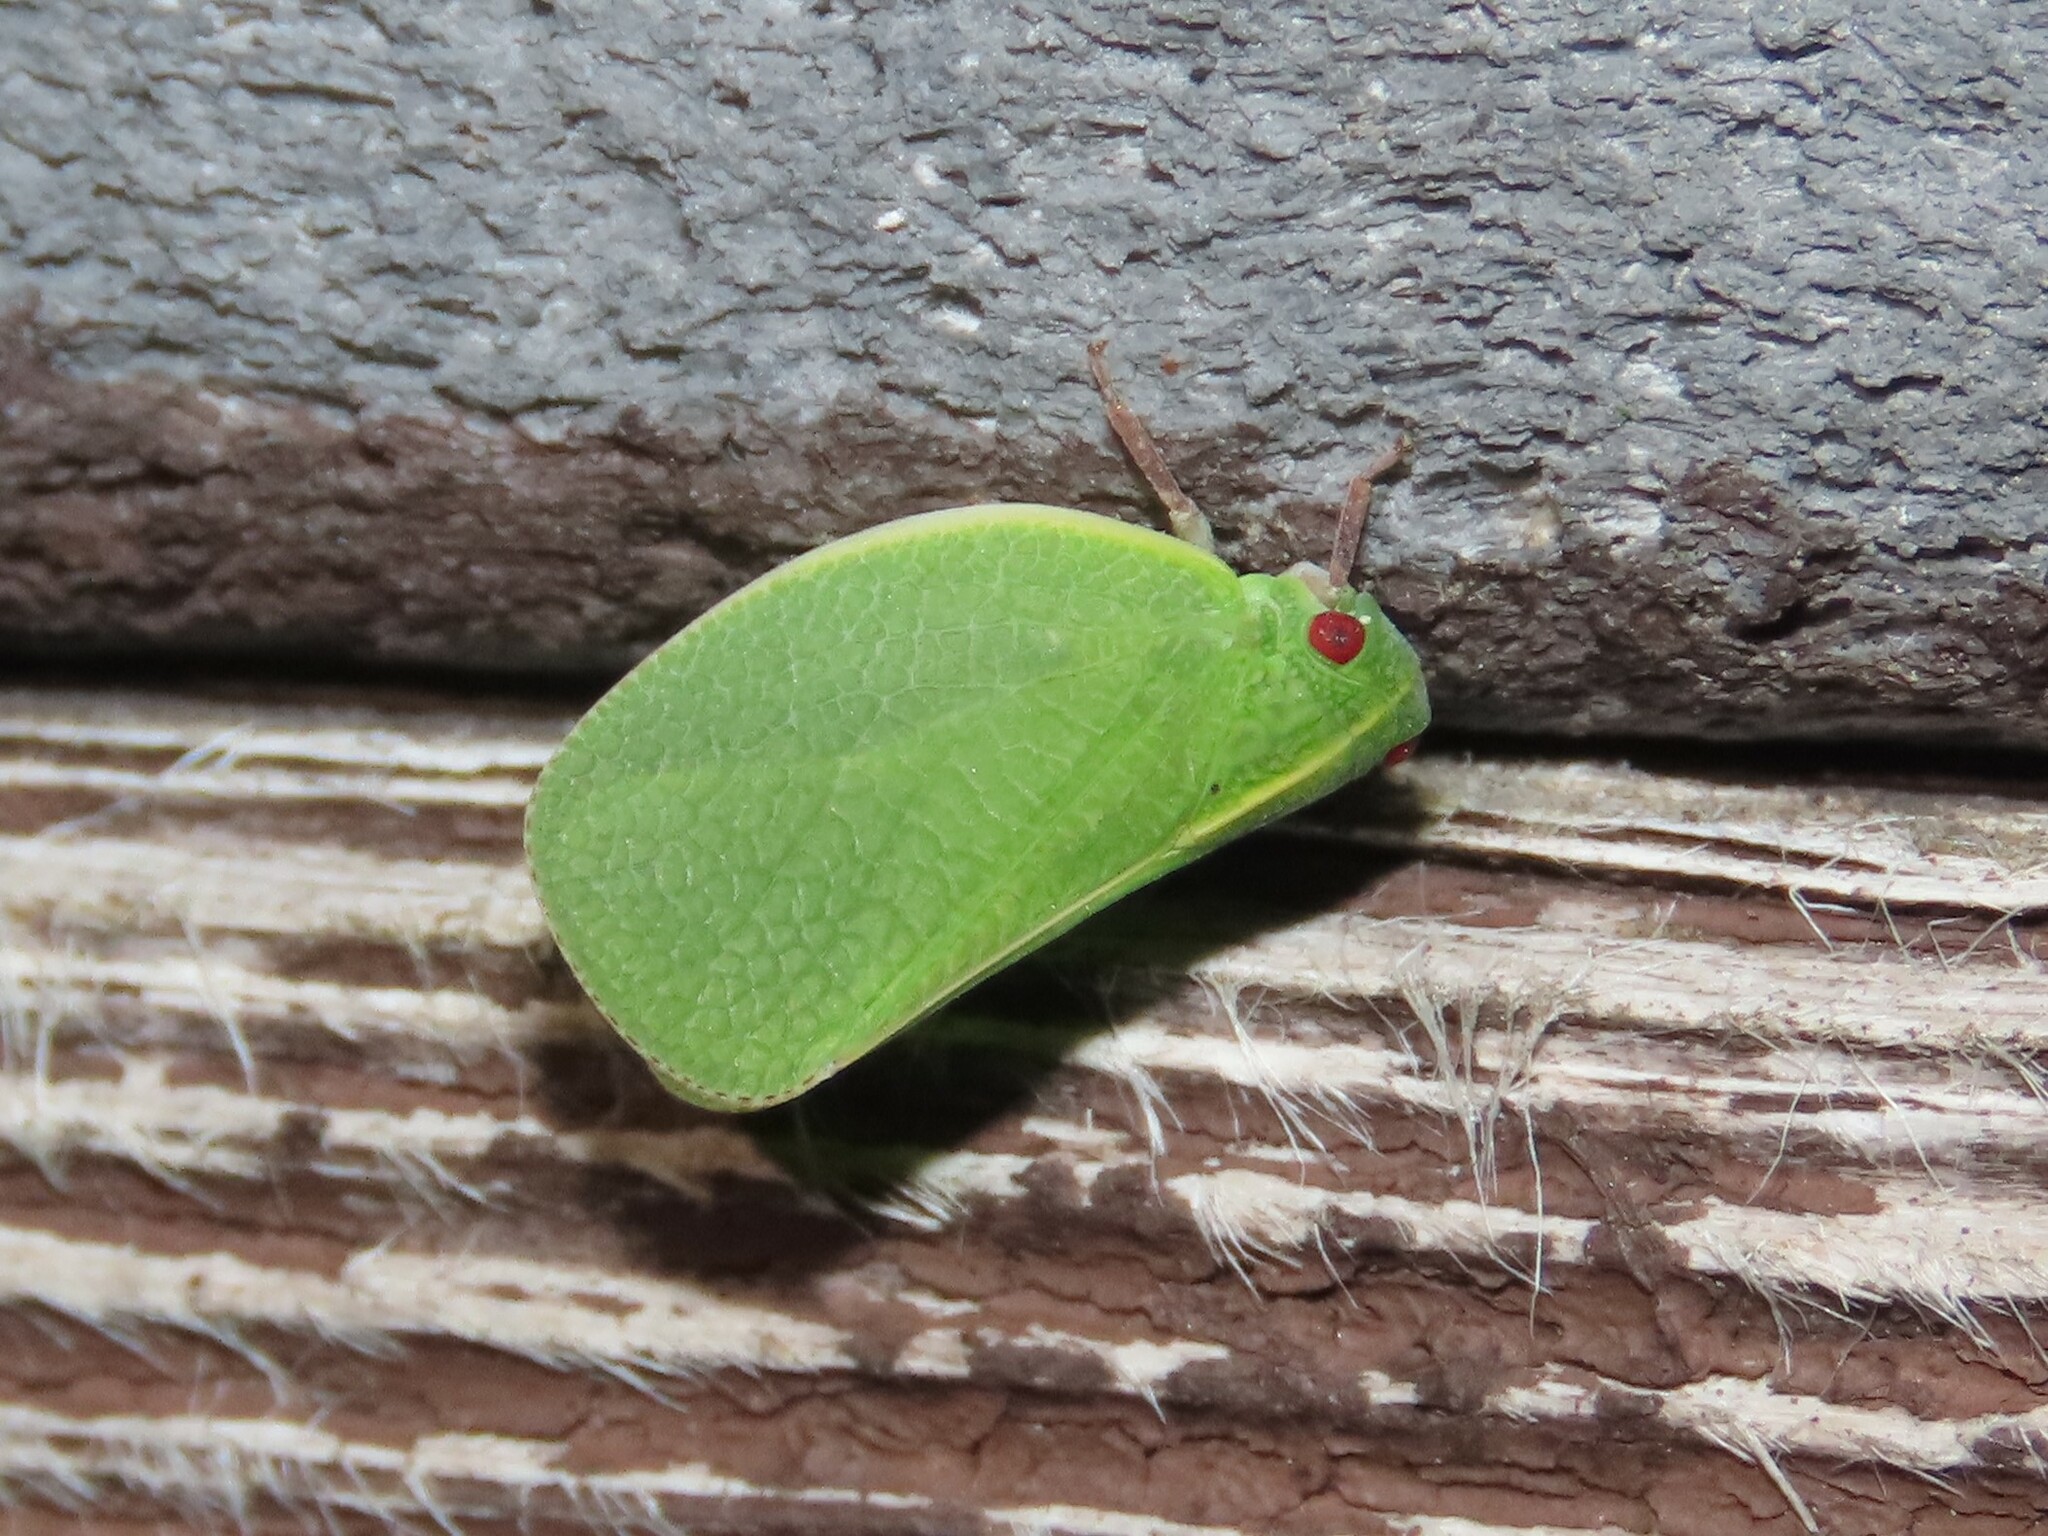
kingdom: Animalia
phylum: Arthropoda
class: Insecta
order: Hemiptera
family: Acanaloniidae
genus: Acanalonia
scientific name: Acanalonia servillei
